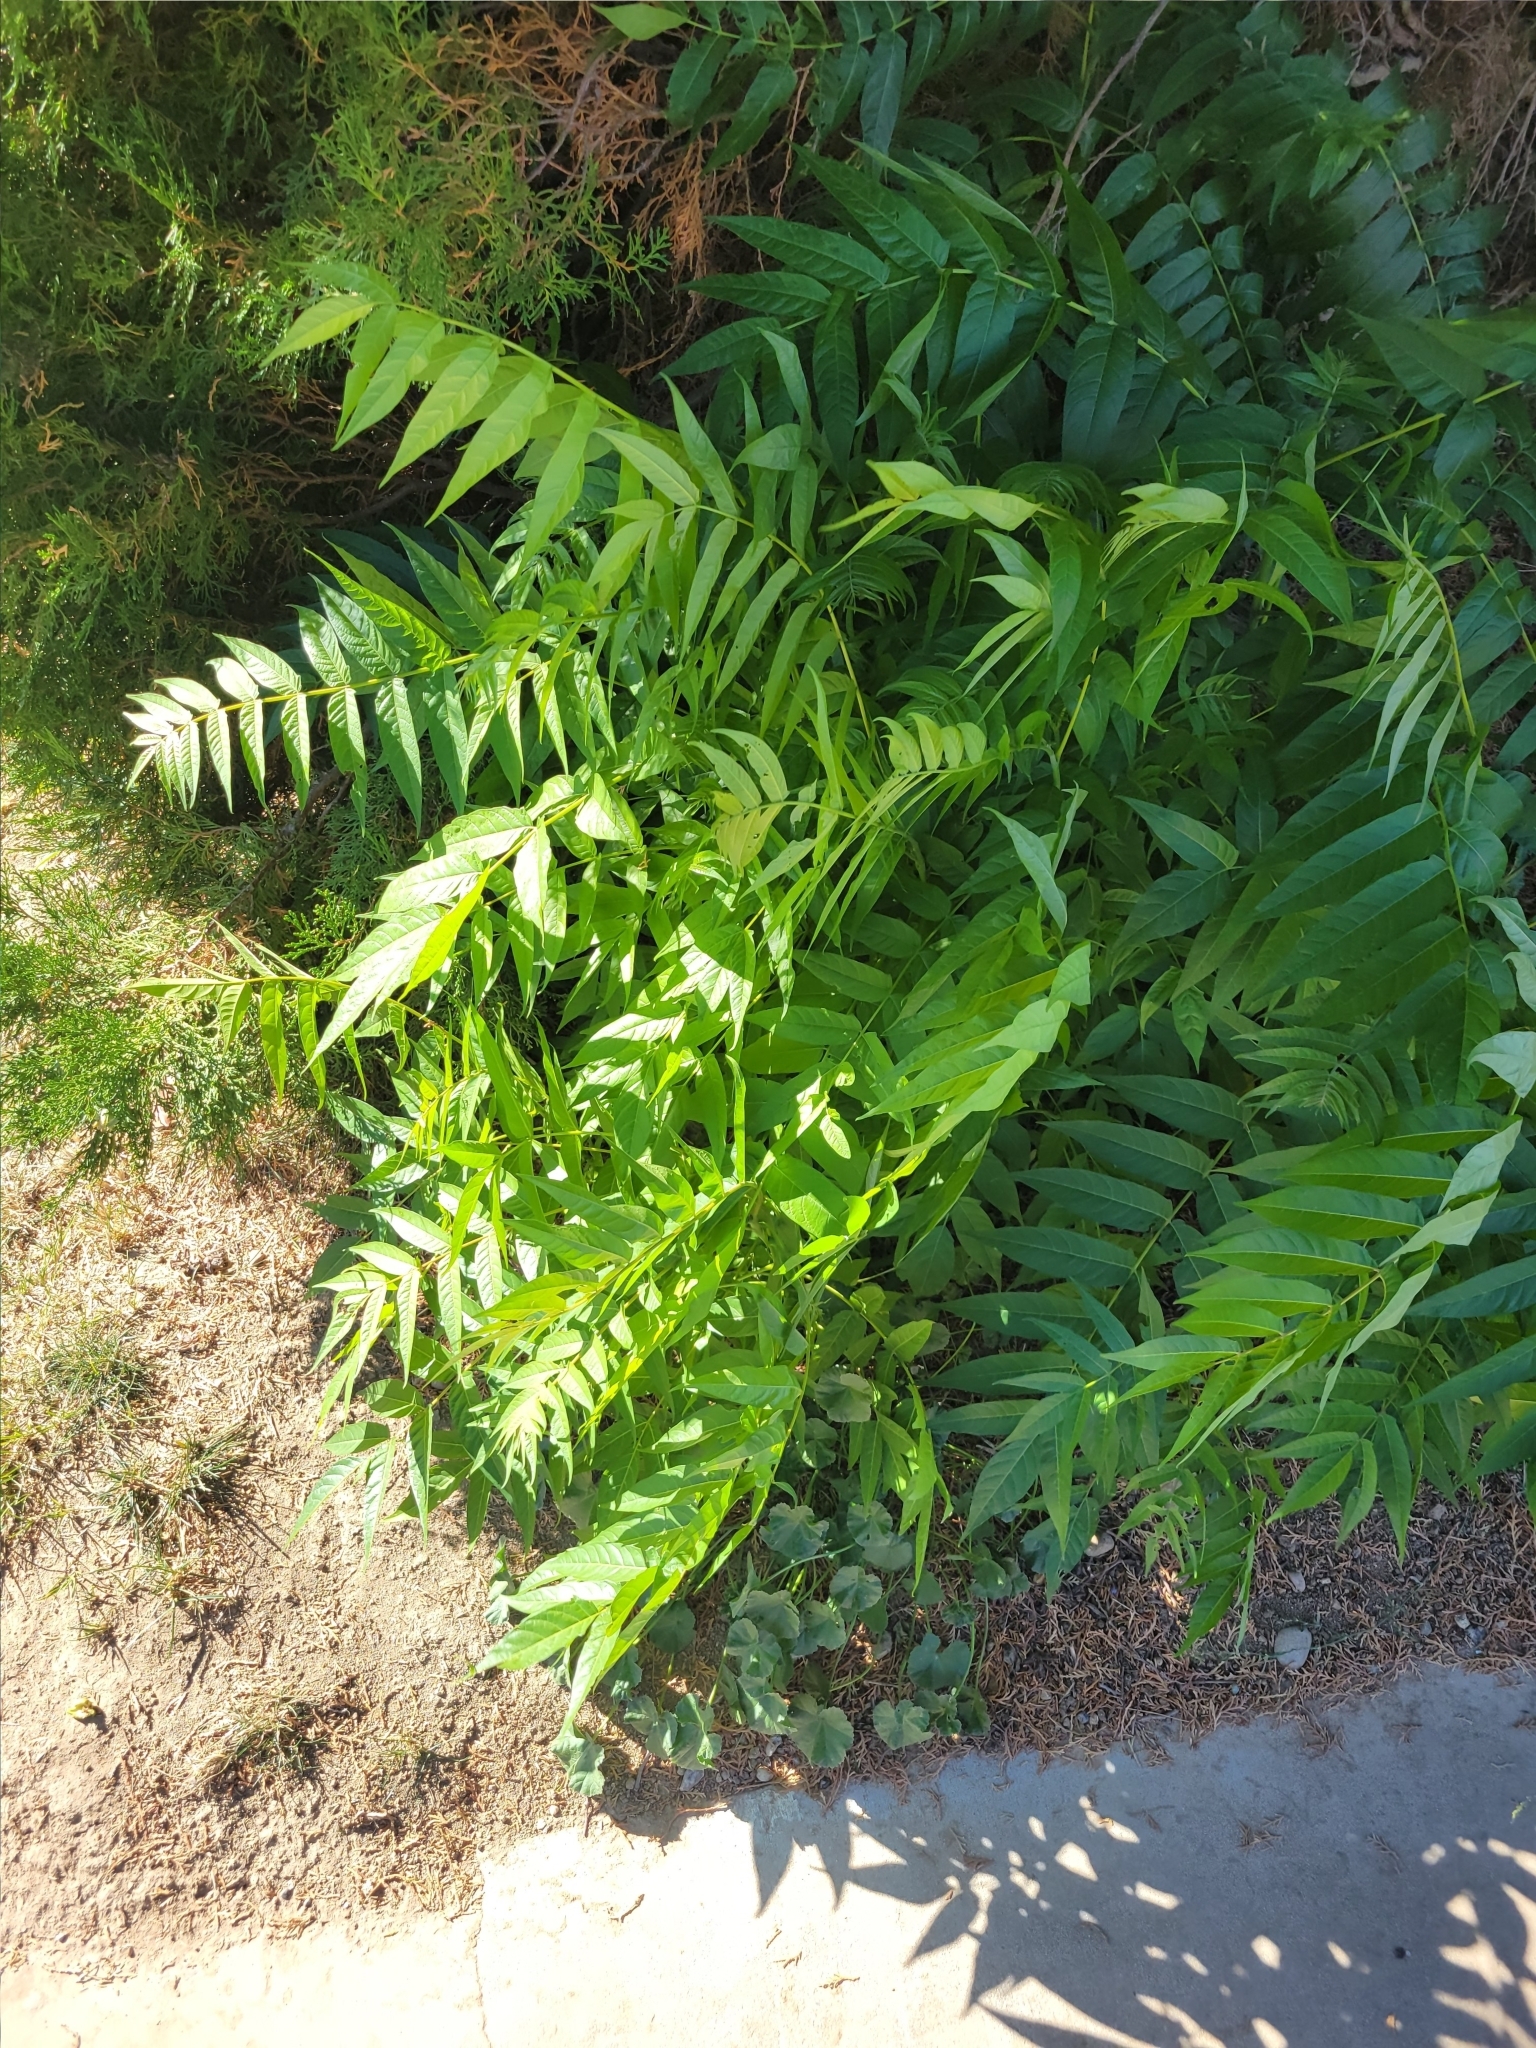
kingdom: Plantae
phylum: Tracheophyta
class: Magnoliopsida
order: Sapindales
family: Simaroubaceae
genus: Ailanthus
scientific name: Ailanthus altissima
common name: Tree-of-heaven
